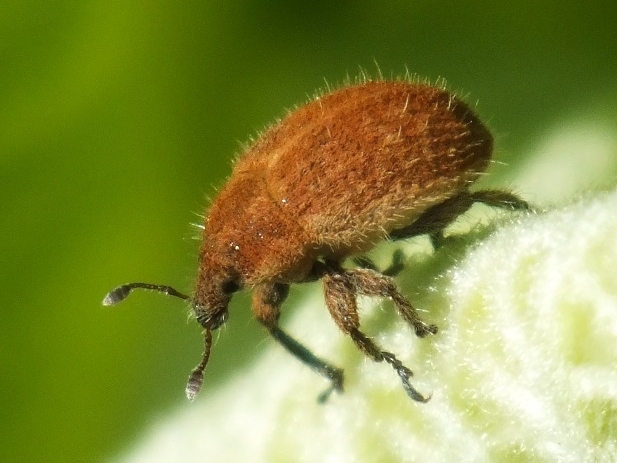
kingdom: Animalia
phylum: Arthropoda
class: Insecta
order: Coleoptera
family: Curculionidae
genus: Lachnaeus
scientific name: Lachnaeus crinitus
